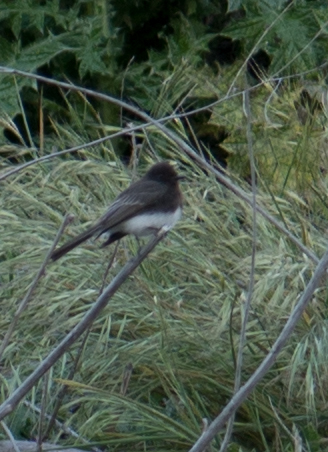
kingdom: Animalia
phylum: Chordata
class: Aves
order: Passeriformes
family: Tyrannidae
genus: Sayornis
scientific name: Sayornis nigricans
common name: Black phoebe
